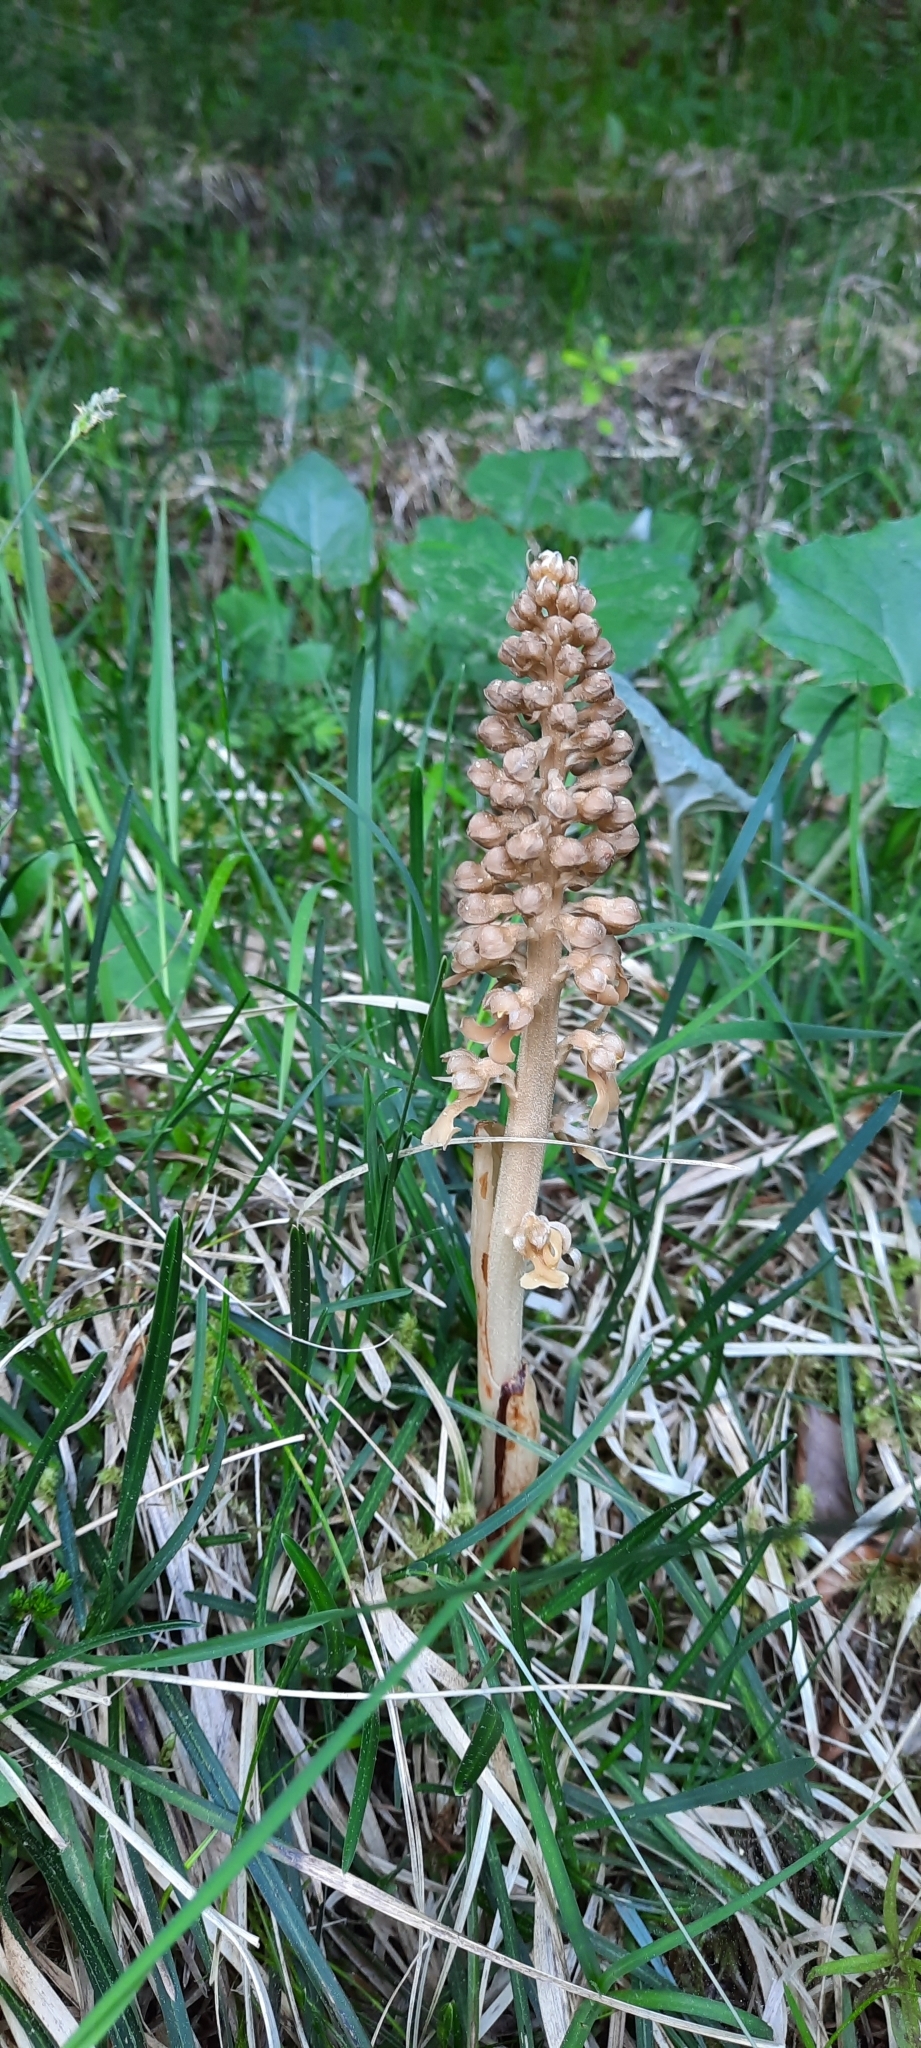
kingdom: Plantae
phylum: Tracheophyta
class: Liliopsida
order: Asparagales
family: Orchidaceae
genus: Neottia
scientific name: Neottia nidus-avis
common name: Bird's-nest orchid
